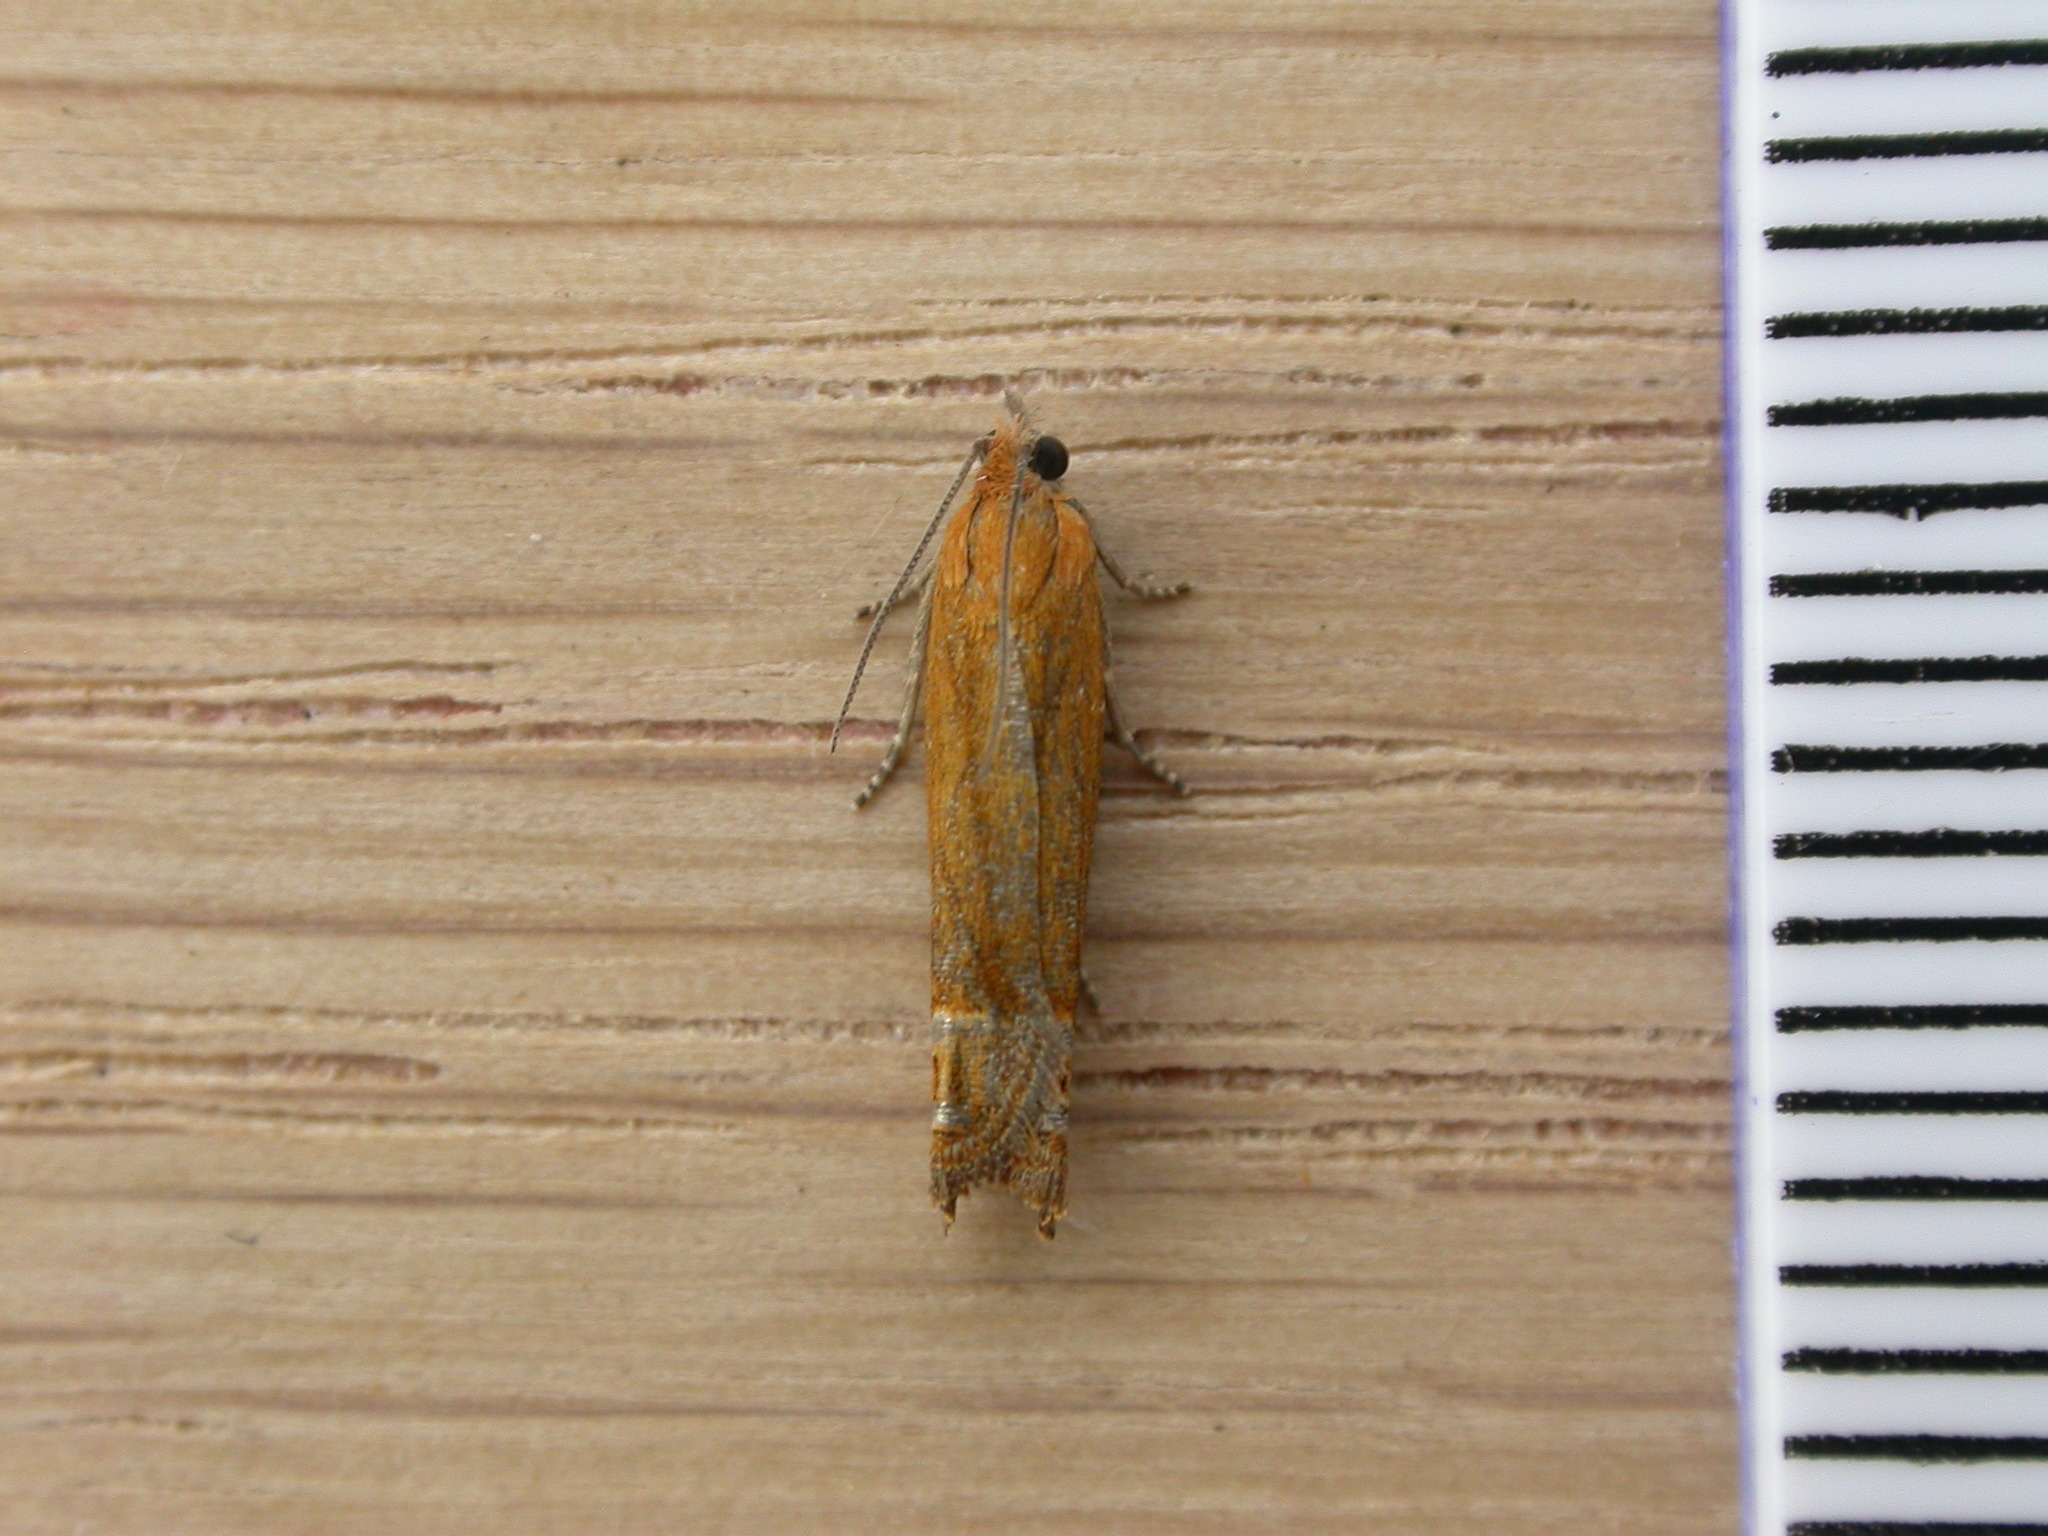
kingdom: Animalia
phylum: Arthropoda
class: Insecta
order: Lepidoptera
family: Tortricidae
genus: Lathronympha
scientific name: Lathronympha strigana
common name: Red piercer
